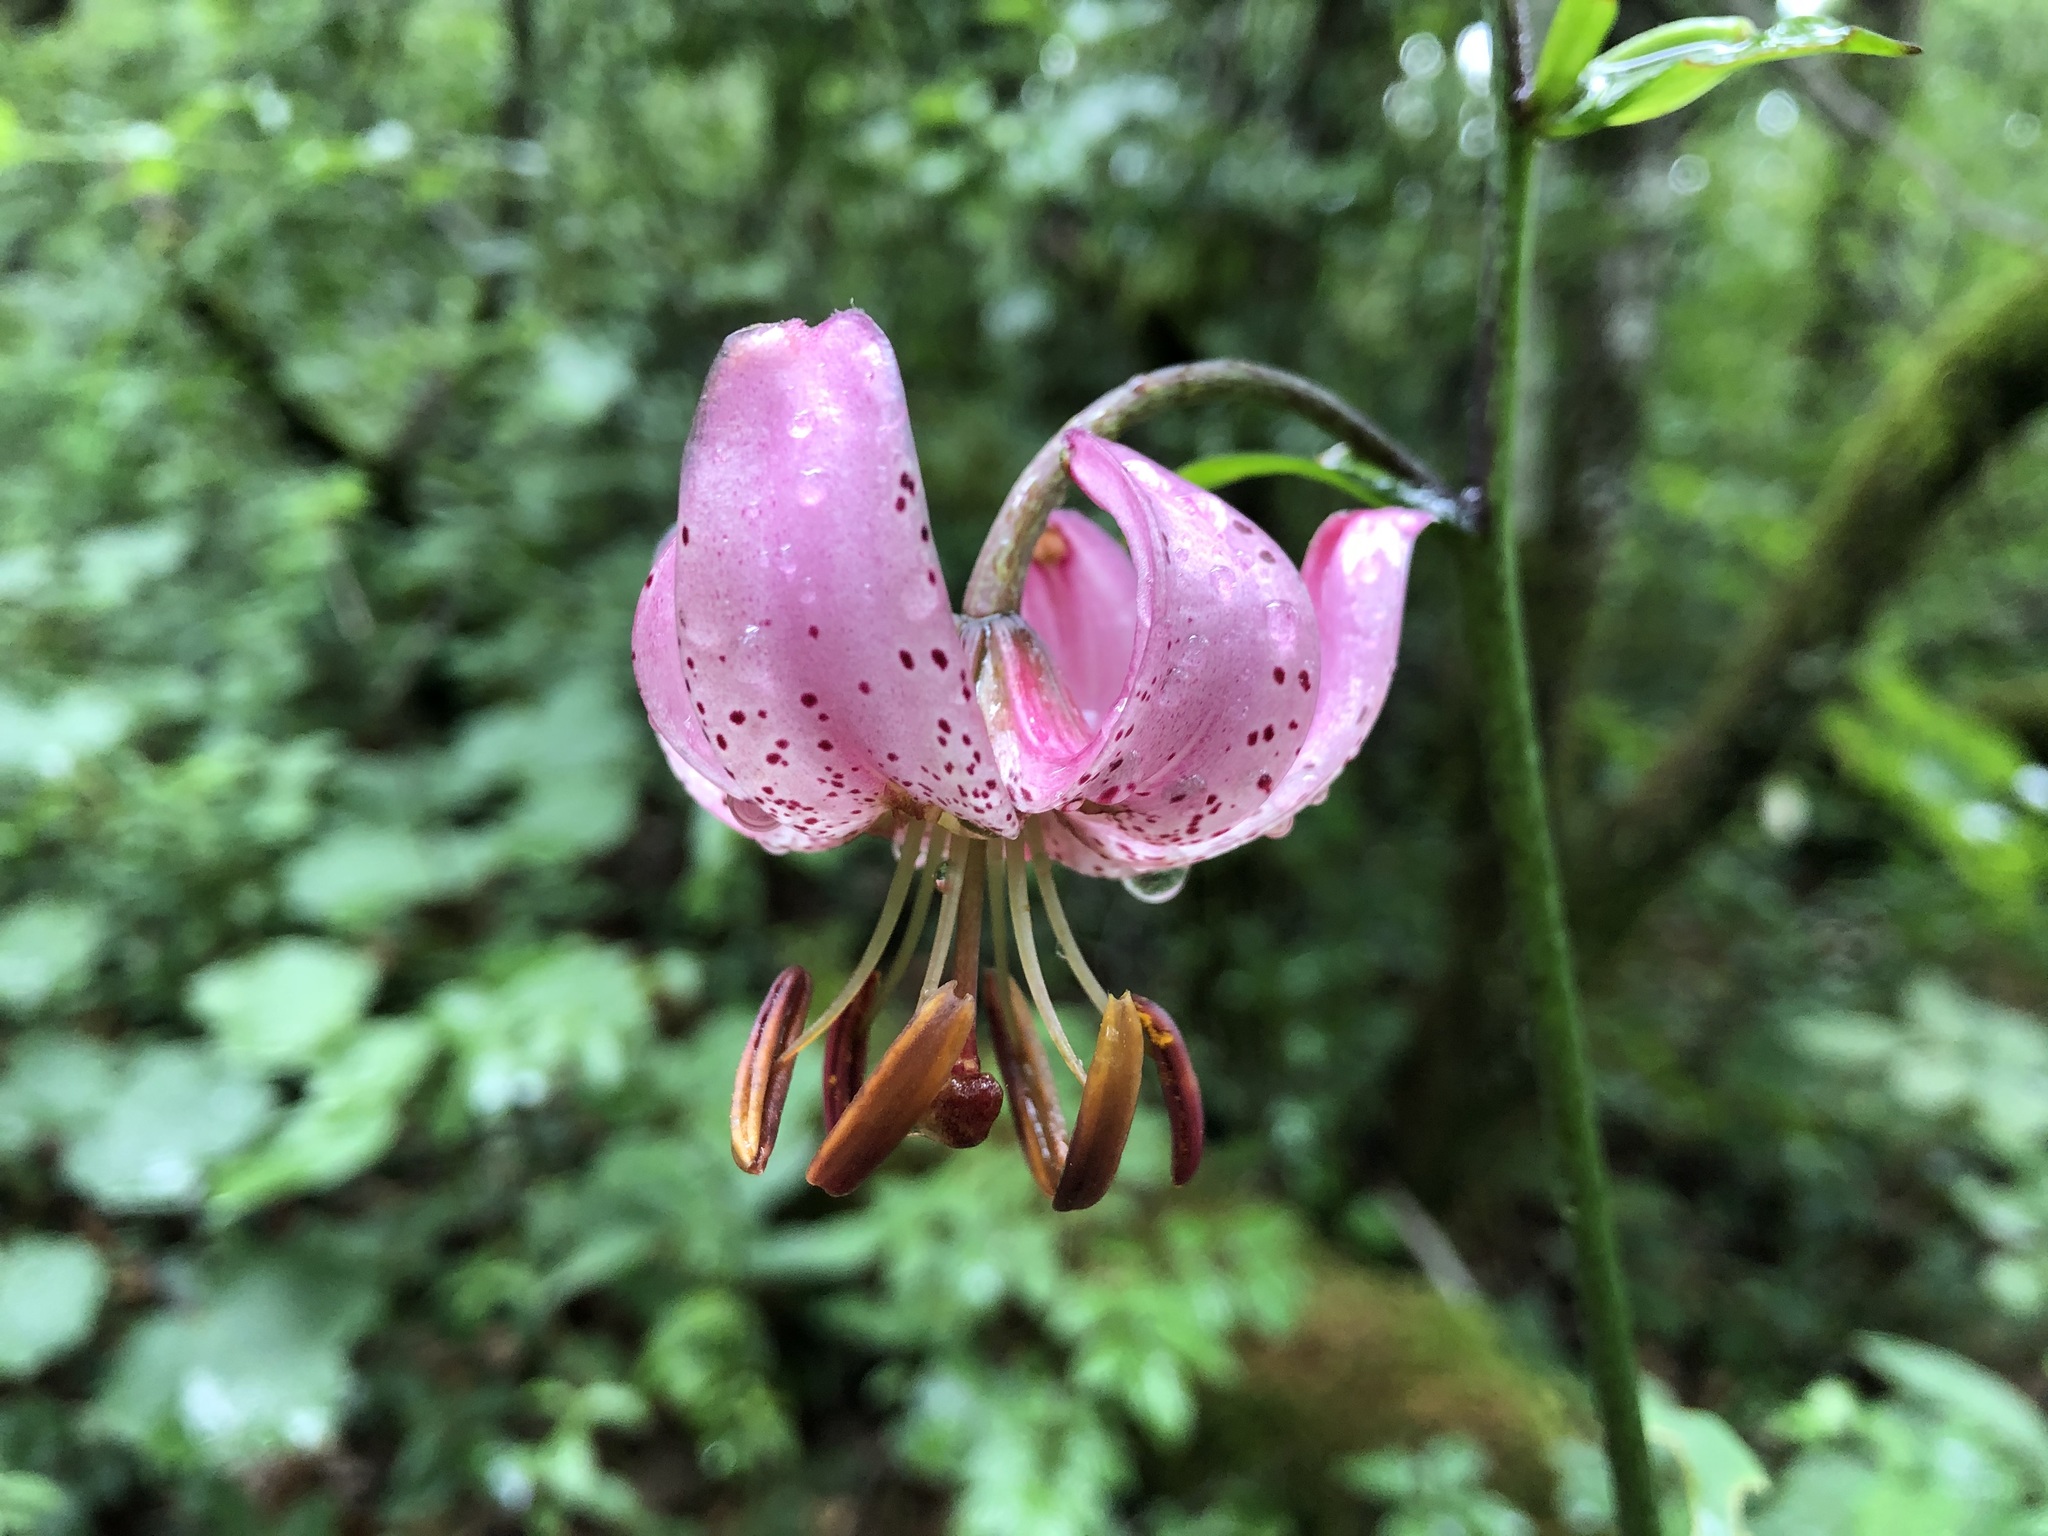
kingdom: Plantae
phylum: Tracheophyta
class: Liliopsida
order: Liliales
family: Liliaceae
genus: Lilium
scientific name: Lilium martagon
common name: Martagon lily
